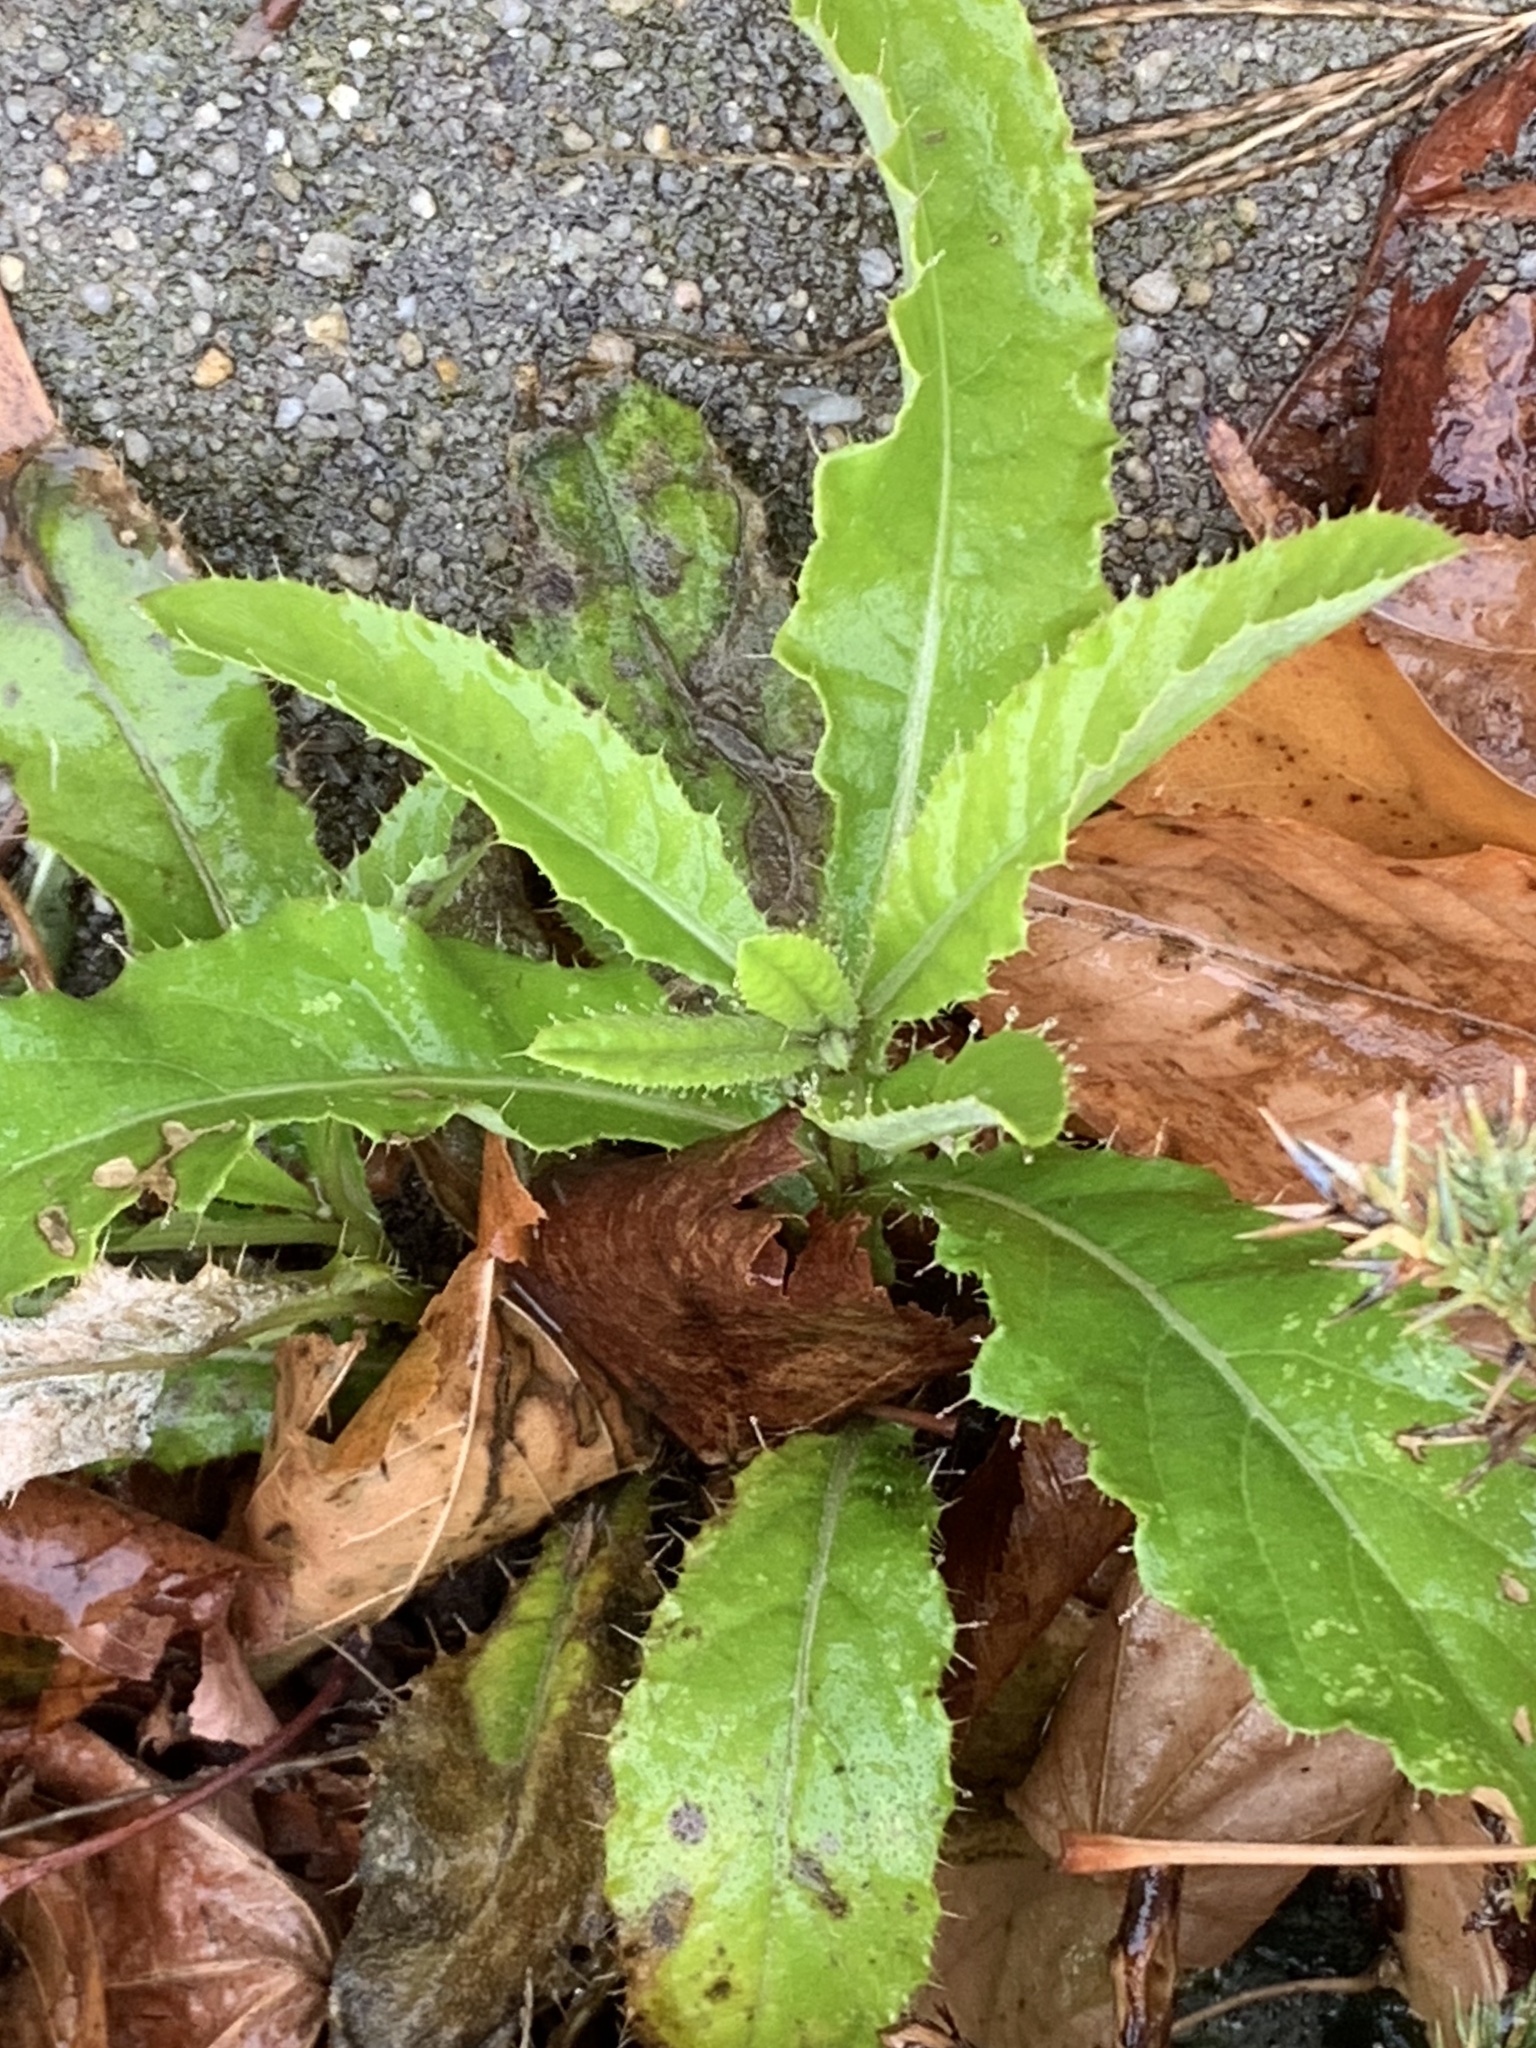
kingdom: Plantae
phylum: Tracheophyta
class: Magnoliopsida
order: Asterales
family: Asteraceae
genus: Cirsium
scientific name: Cirsium arvense
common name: Creeping thistle
